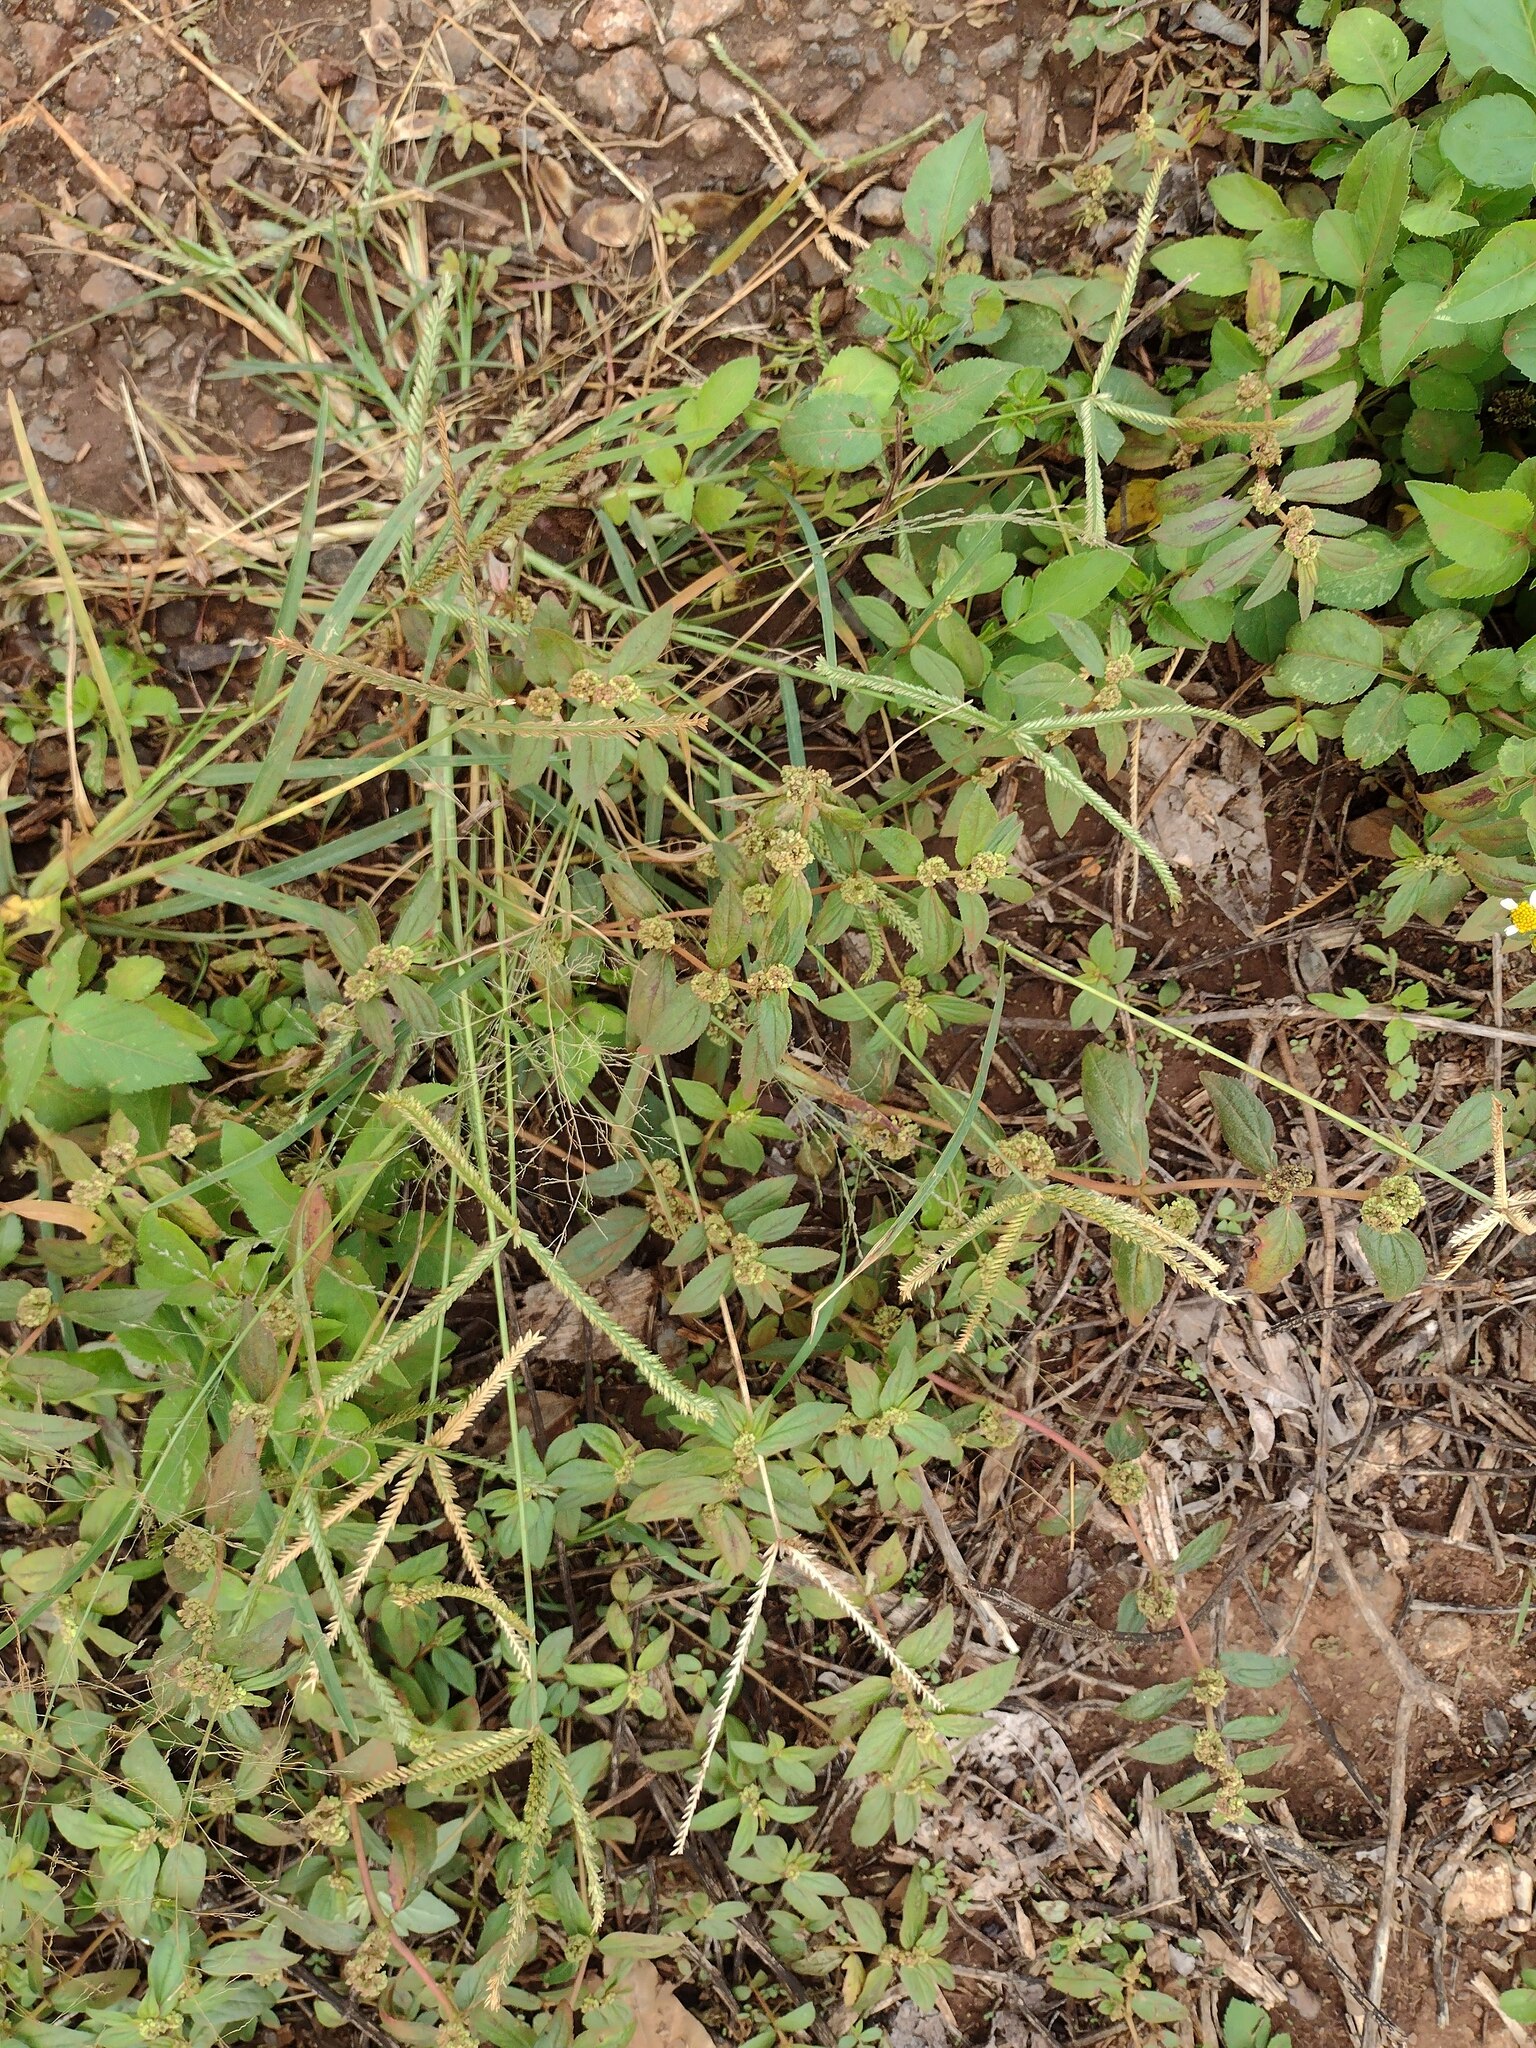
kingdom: Plantae
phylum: Tracheophyta
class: Liliopsida
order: Poales
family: Poaceae
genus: Eleusine
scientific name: Eleusine indica
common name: Yard-grass
